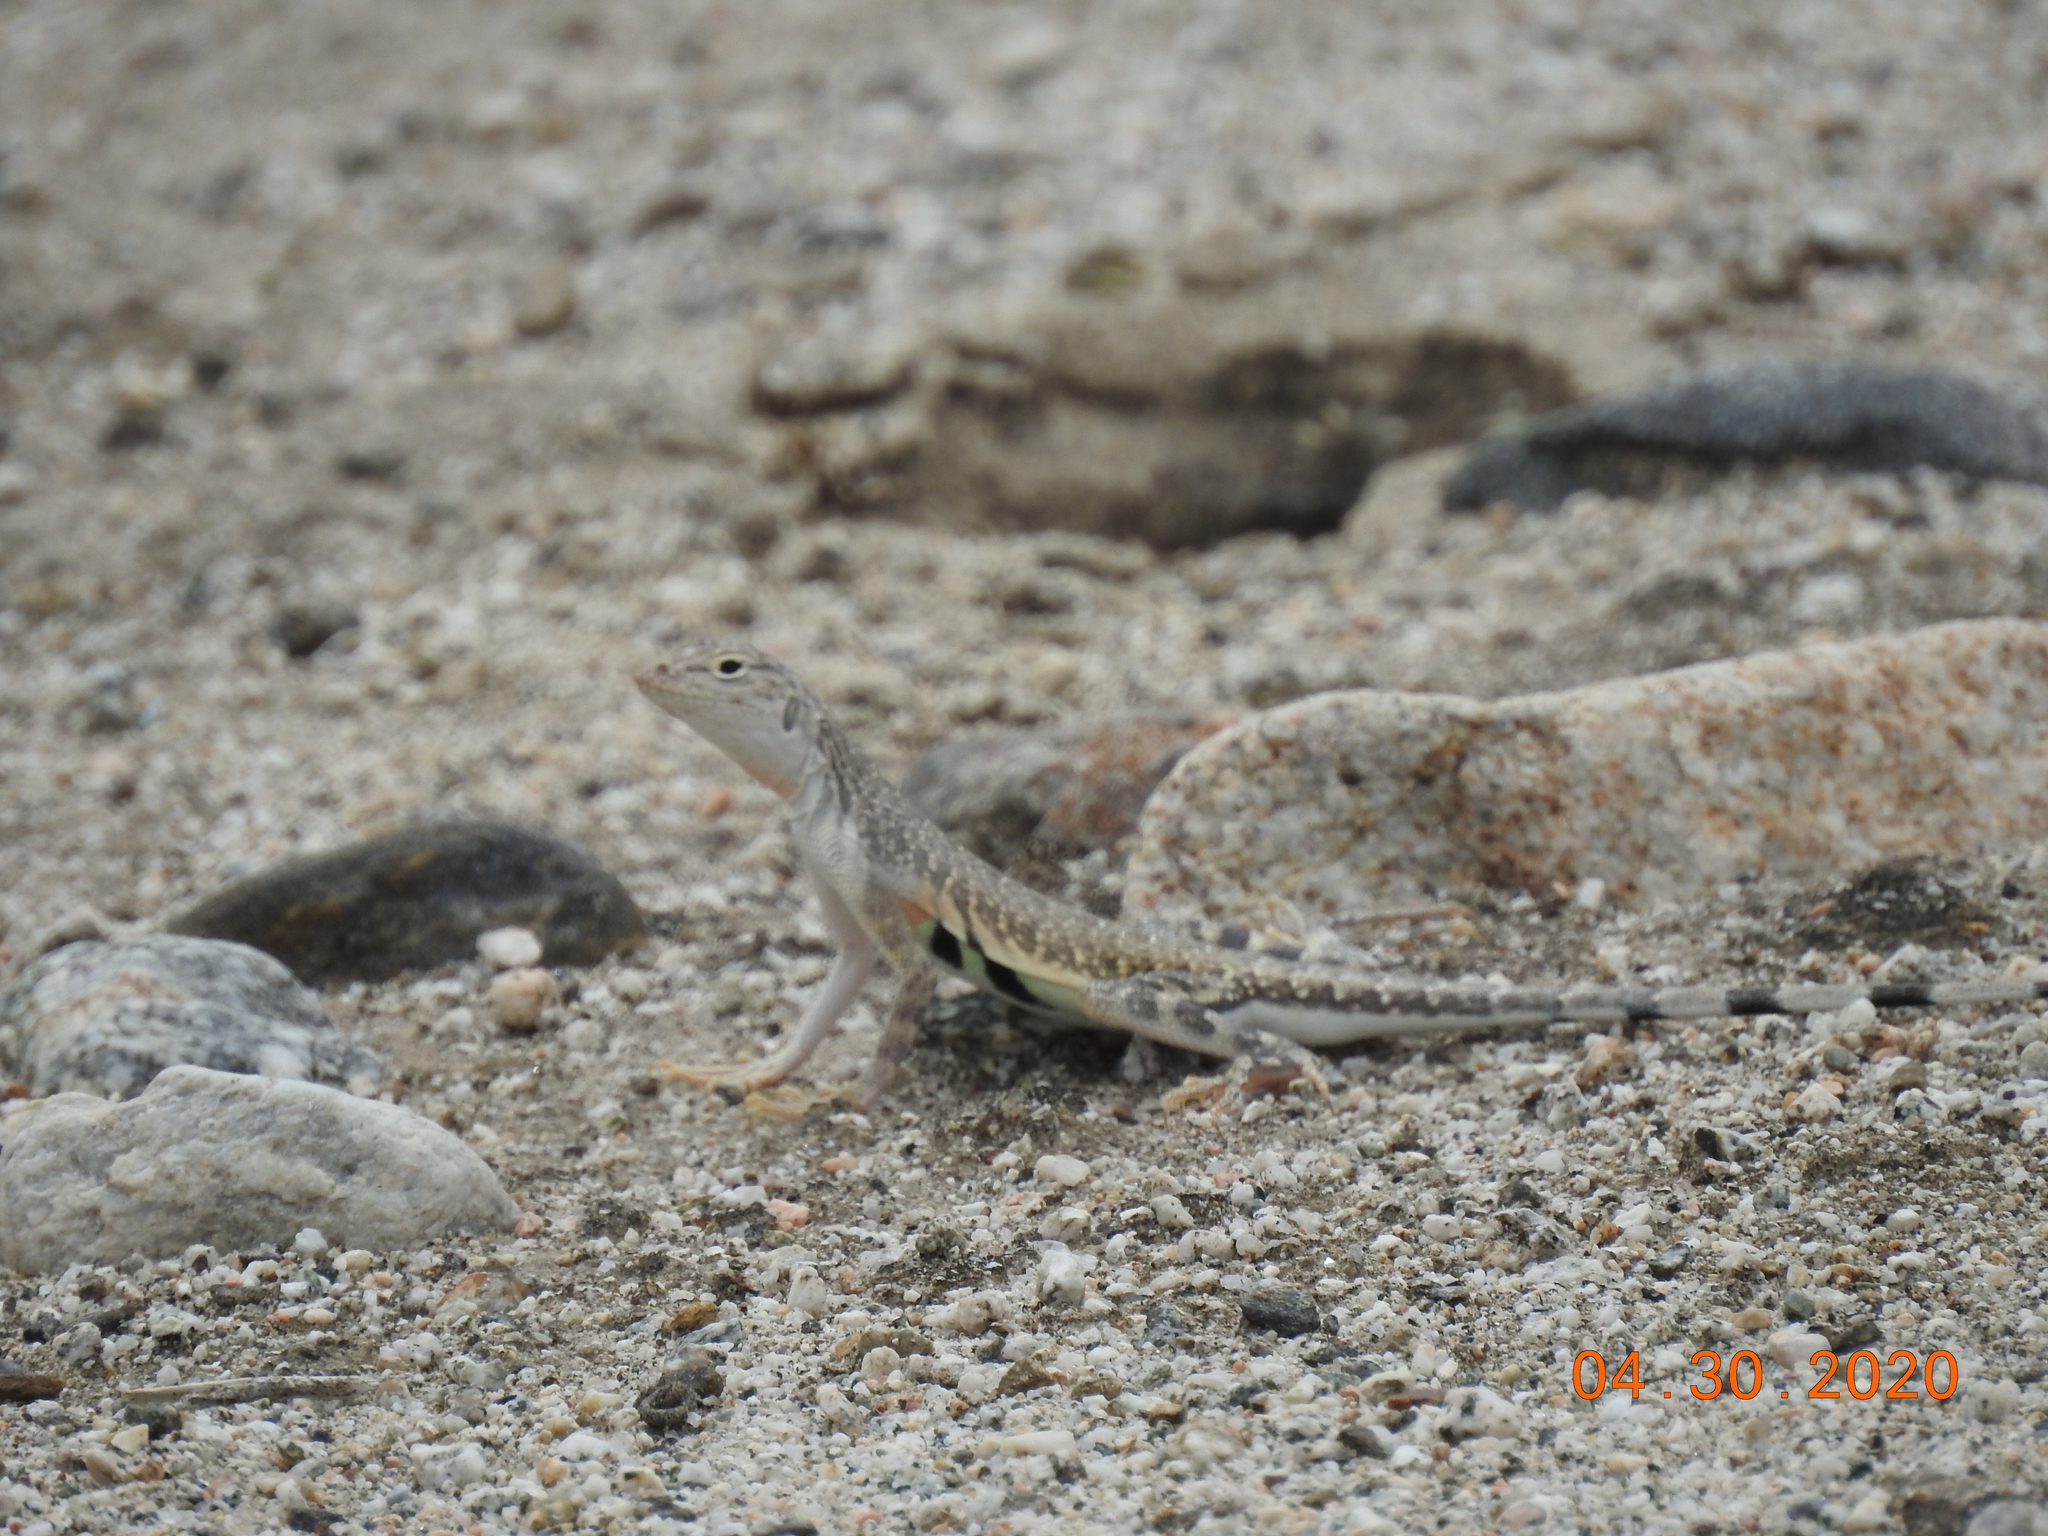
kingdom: Animalia
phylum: Chordata
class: Squamata
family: Phrynosomatidae
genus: Callisaurus
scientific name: Callisaurus draconoides
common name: Zebra-tailed lizard
